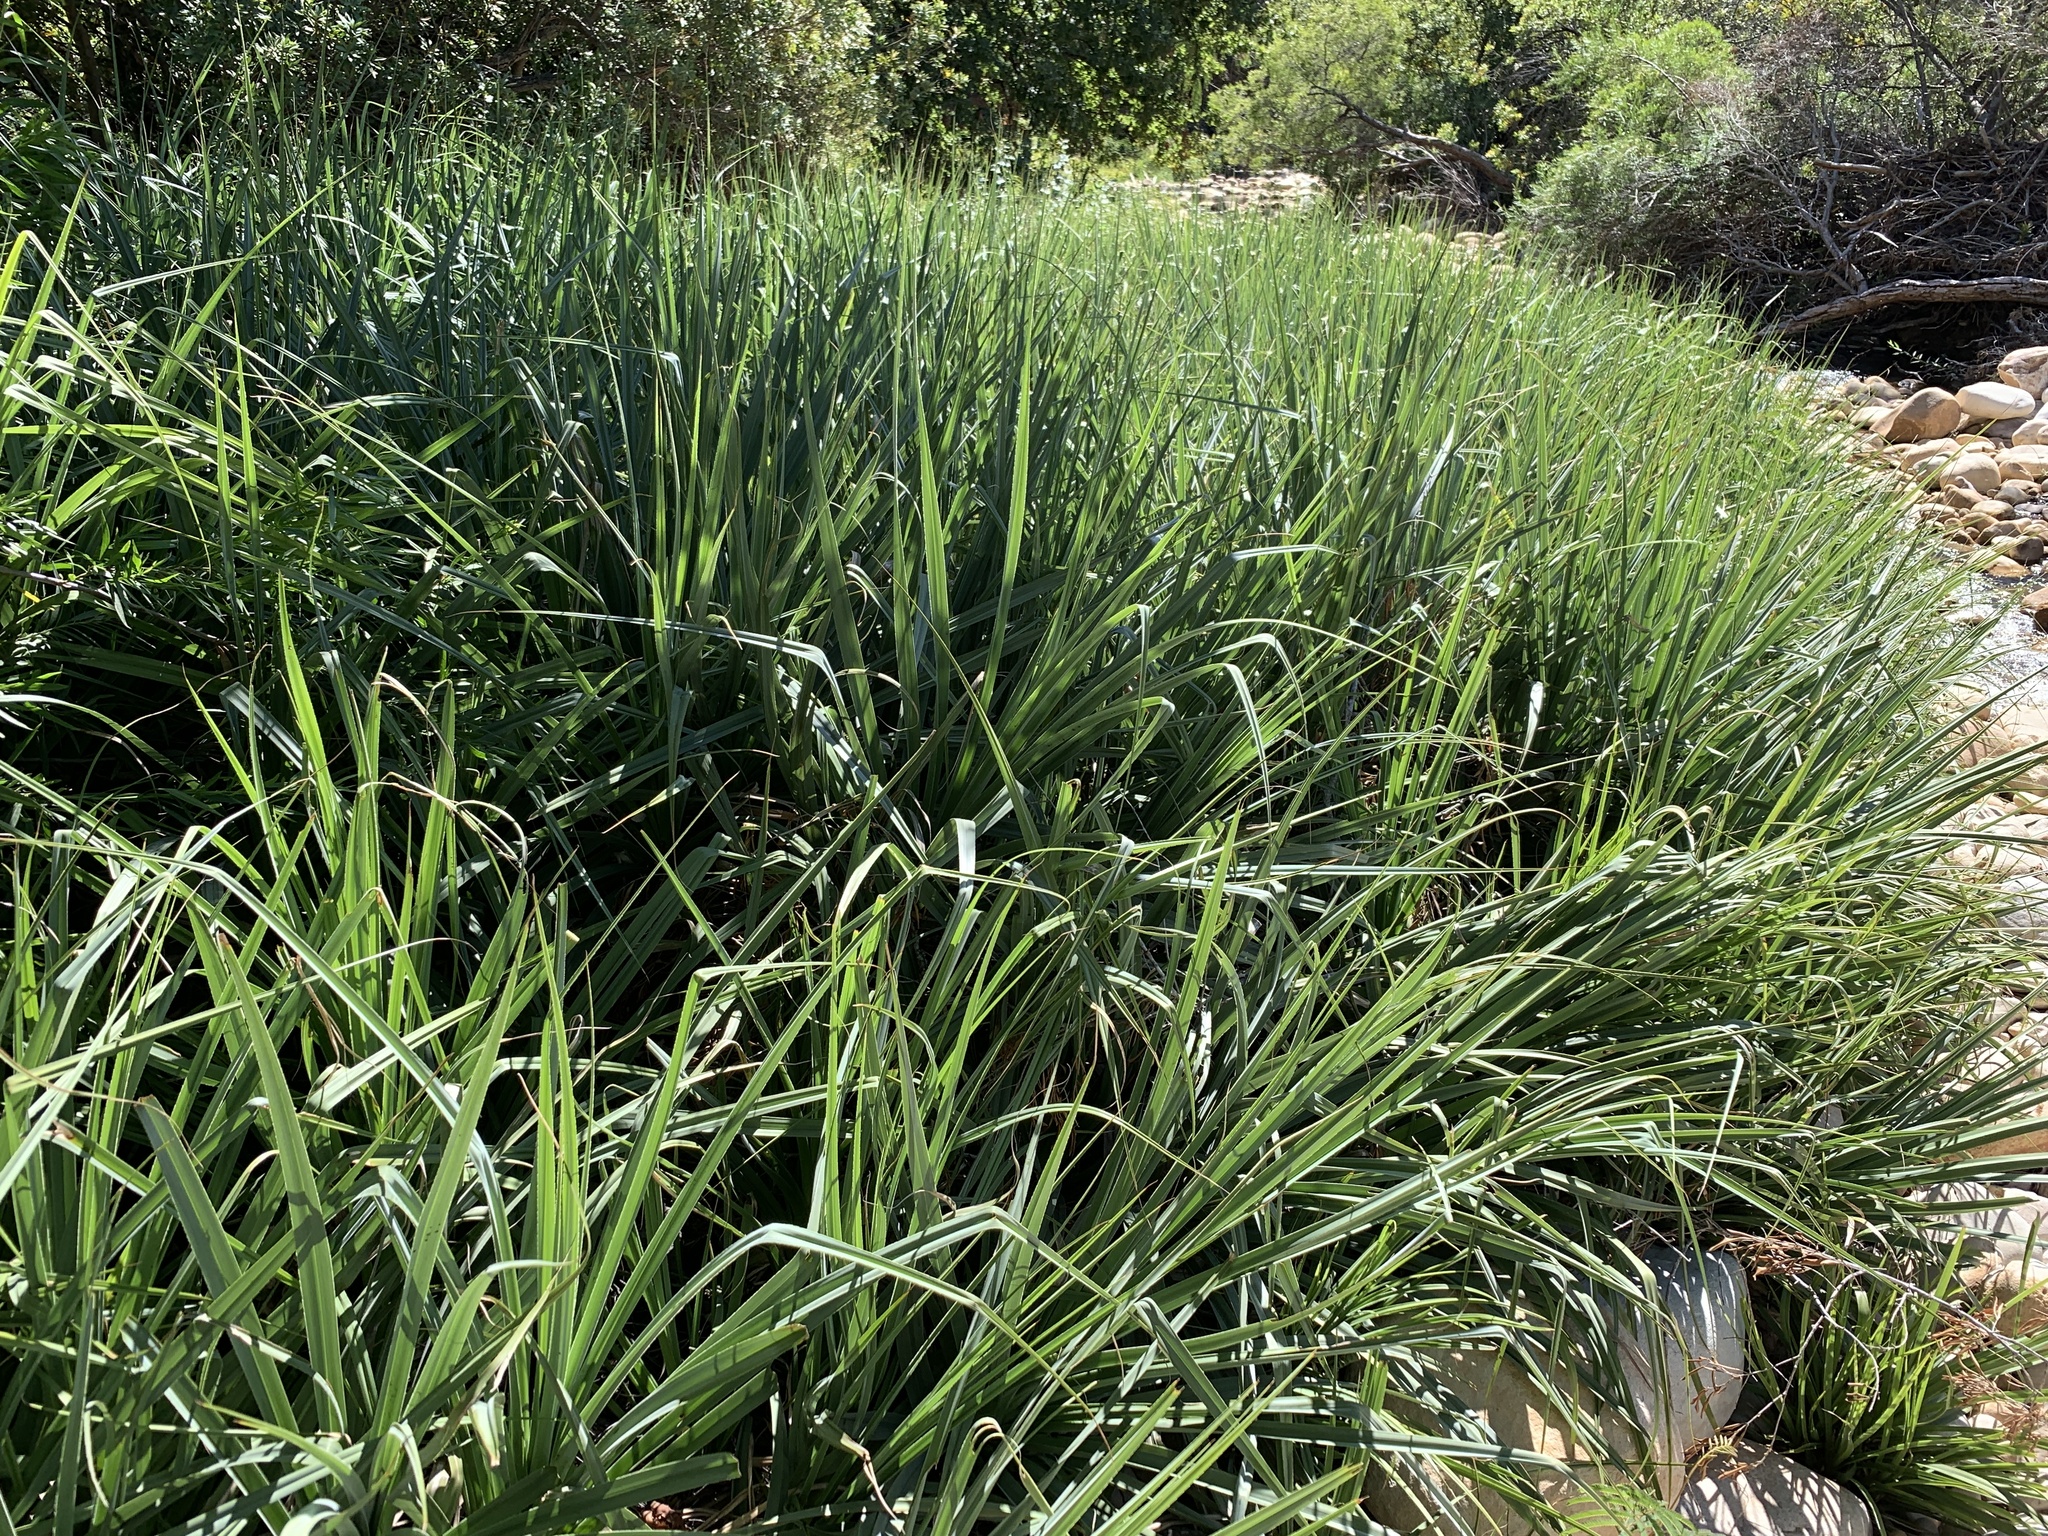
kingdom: Plantae
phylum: Tracheophyta
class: Liliopsida
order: Poales
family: Thurniaceae
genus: Prionium
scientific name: Prionium serratum
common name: Palmiet
